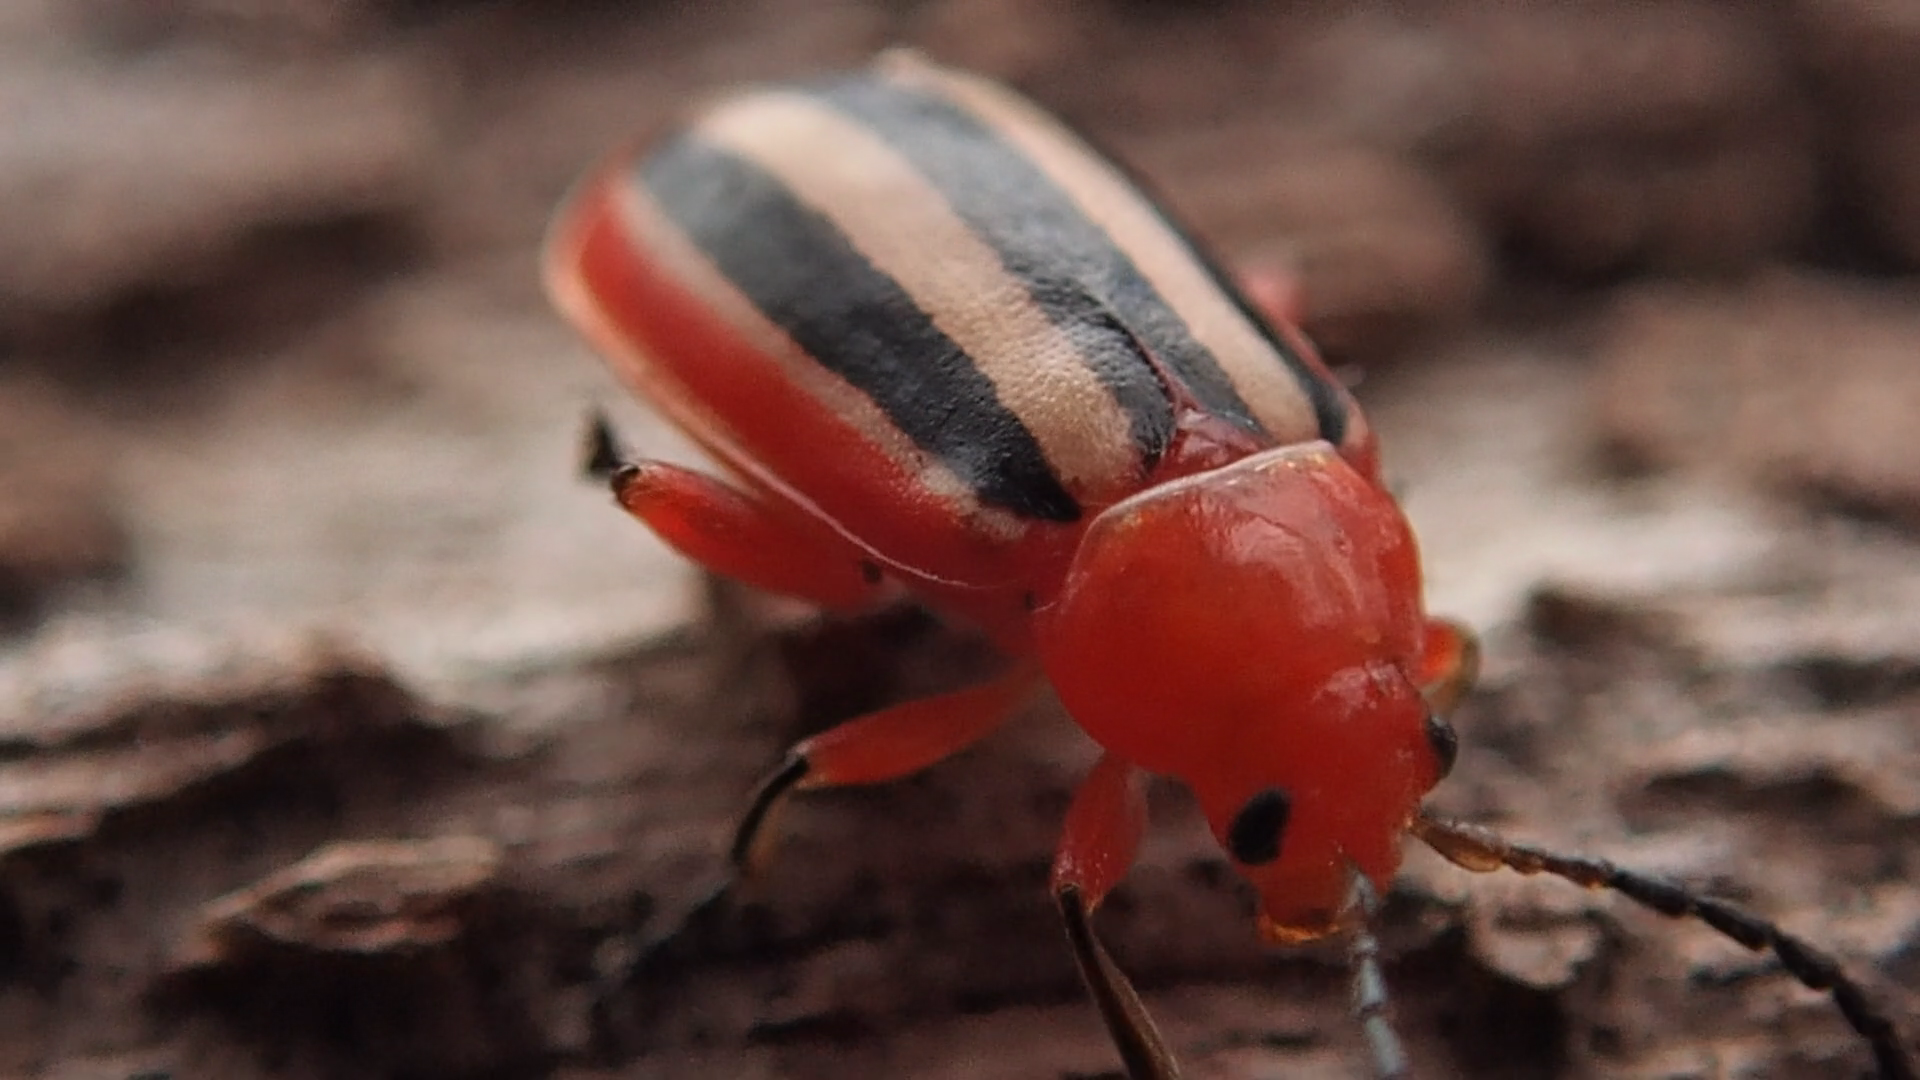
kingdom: Animalia
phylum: Arthropoda
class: Insecta
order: Coleoptera
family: Chrysomelidae
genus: Disonycha
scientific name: Disonycha discoidea
